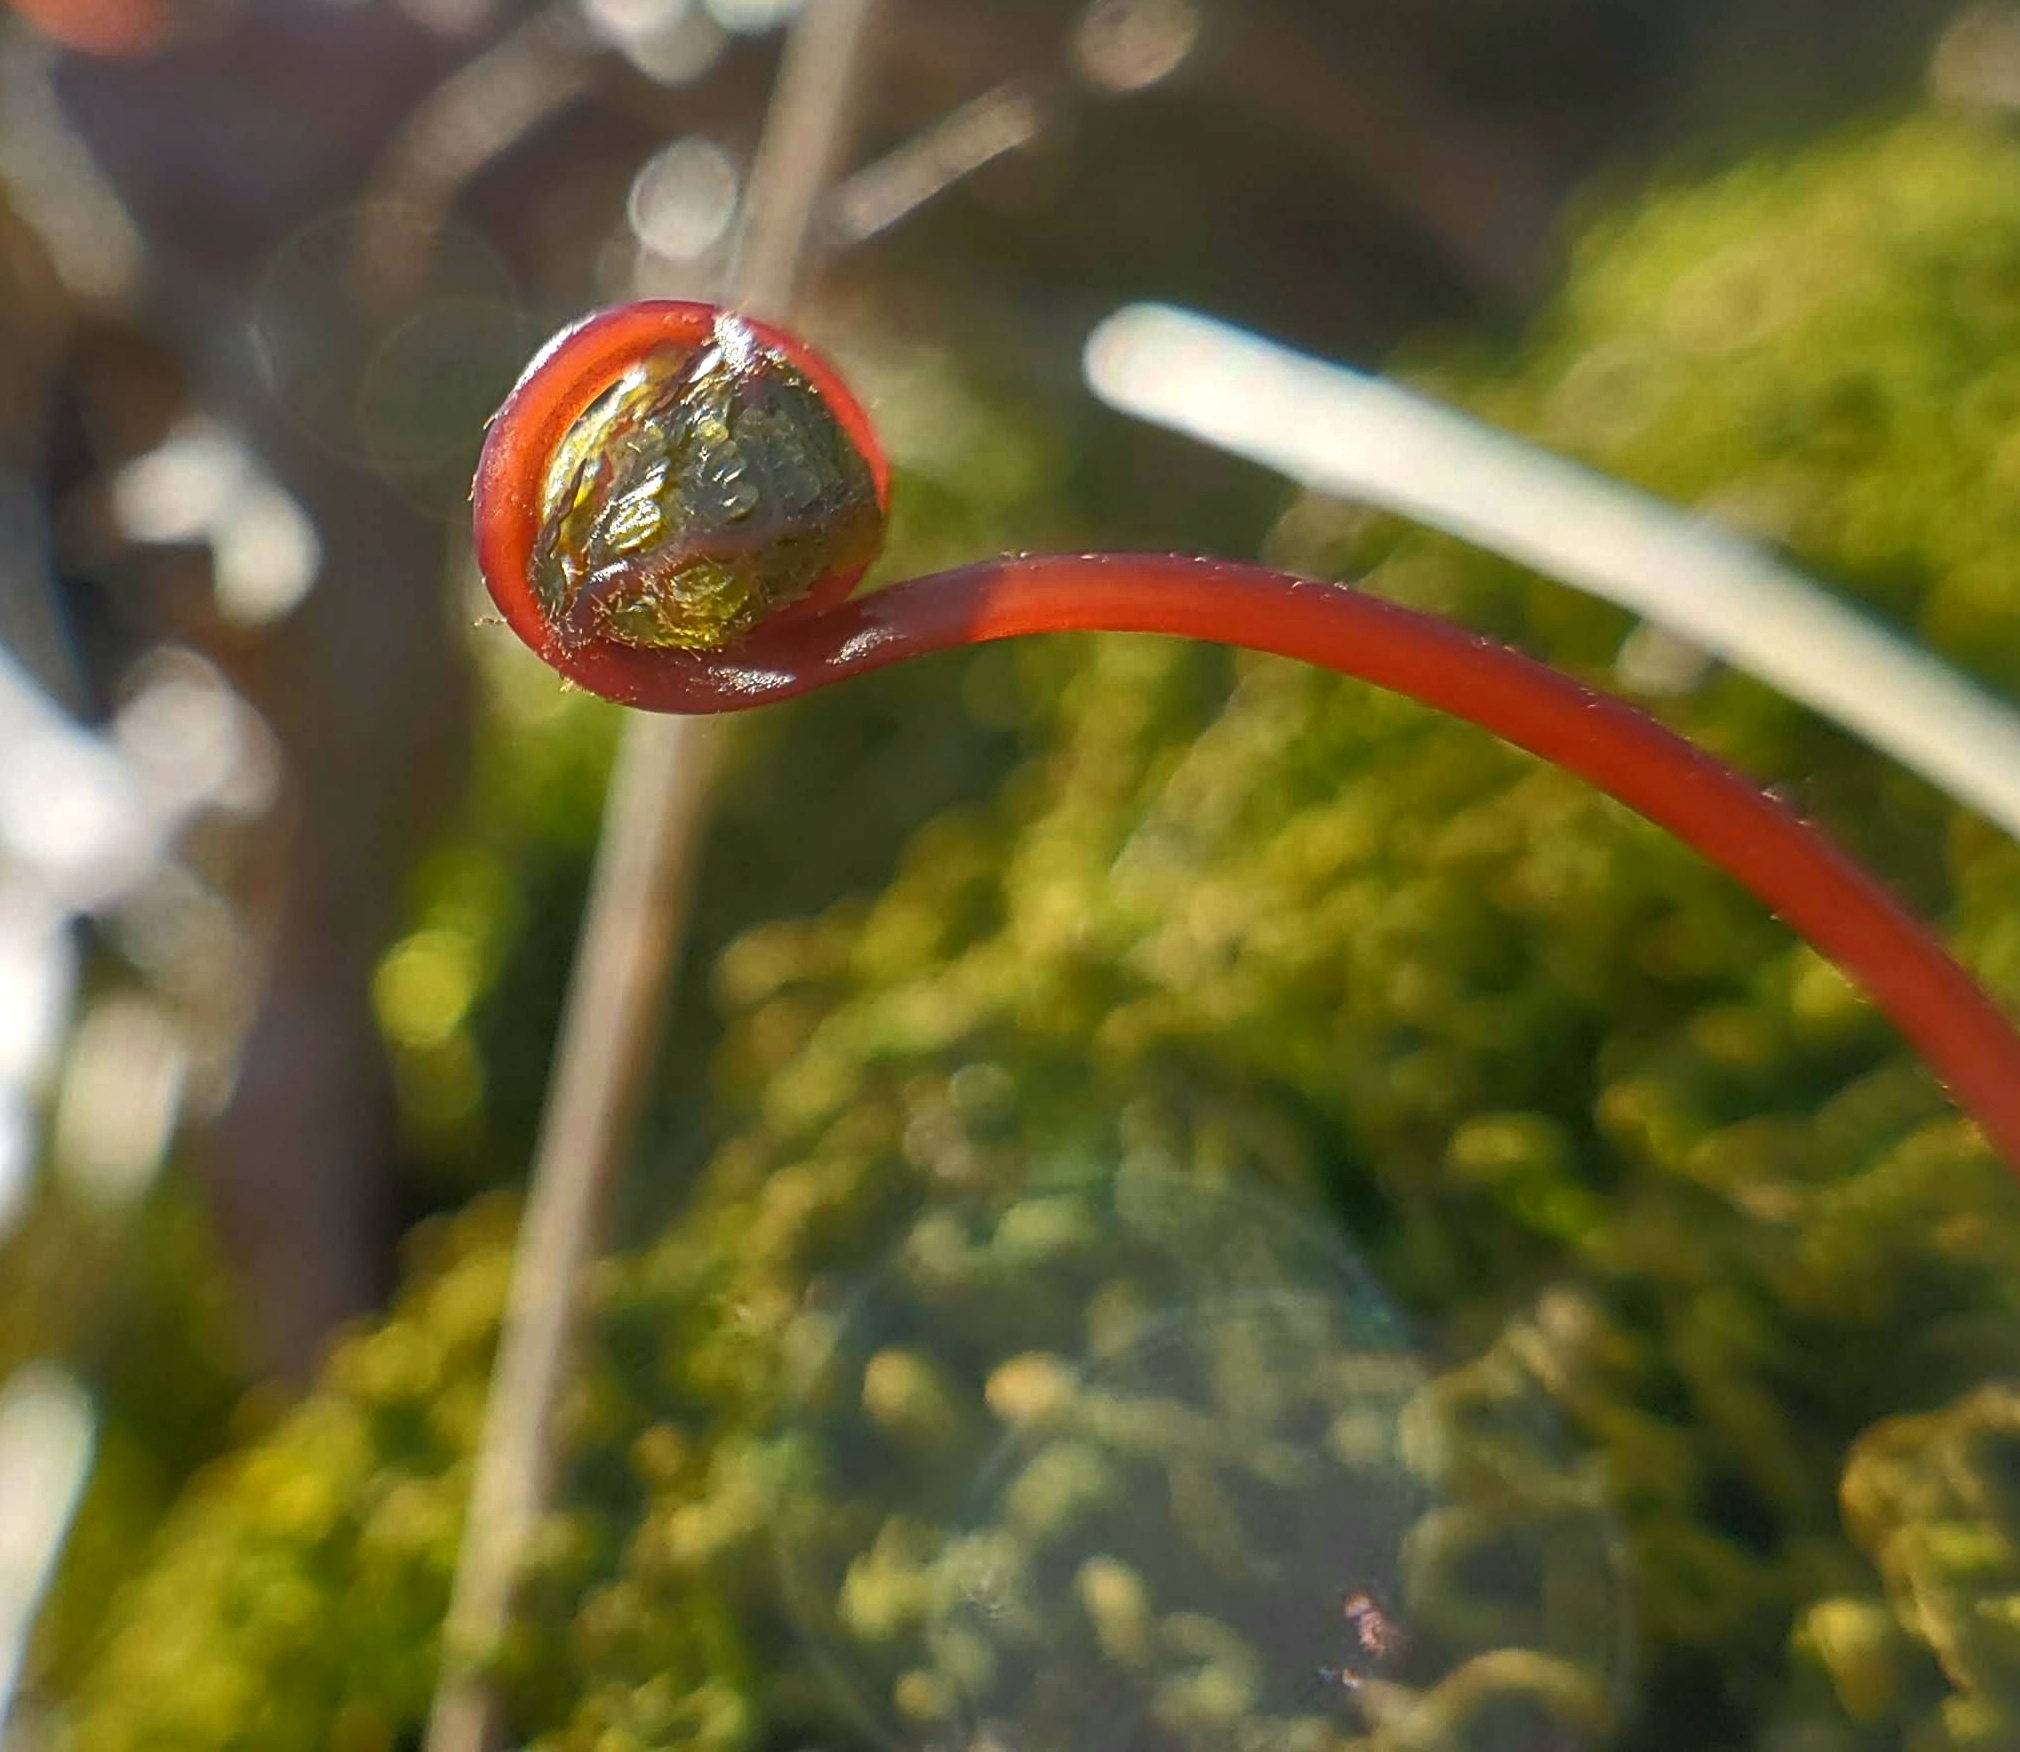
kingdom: Plantae
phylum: Tracheophyta
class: Polypodiopsida
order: Polypodiales
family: Cystopteridaceae
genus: Cystopteris
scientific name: Cystopteris bulbifera
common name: Bulblet bladder fern
